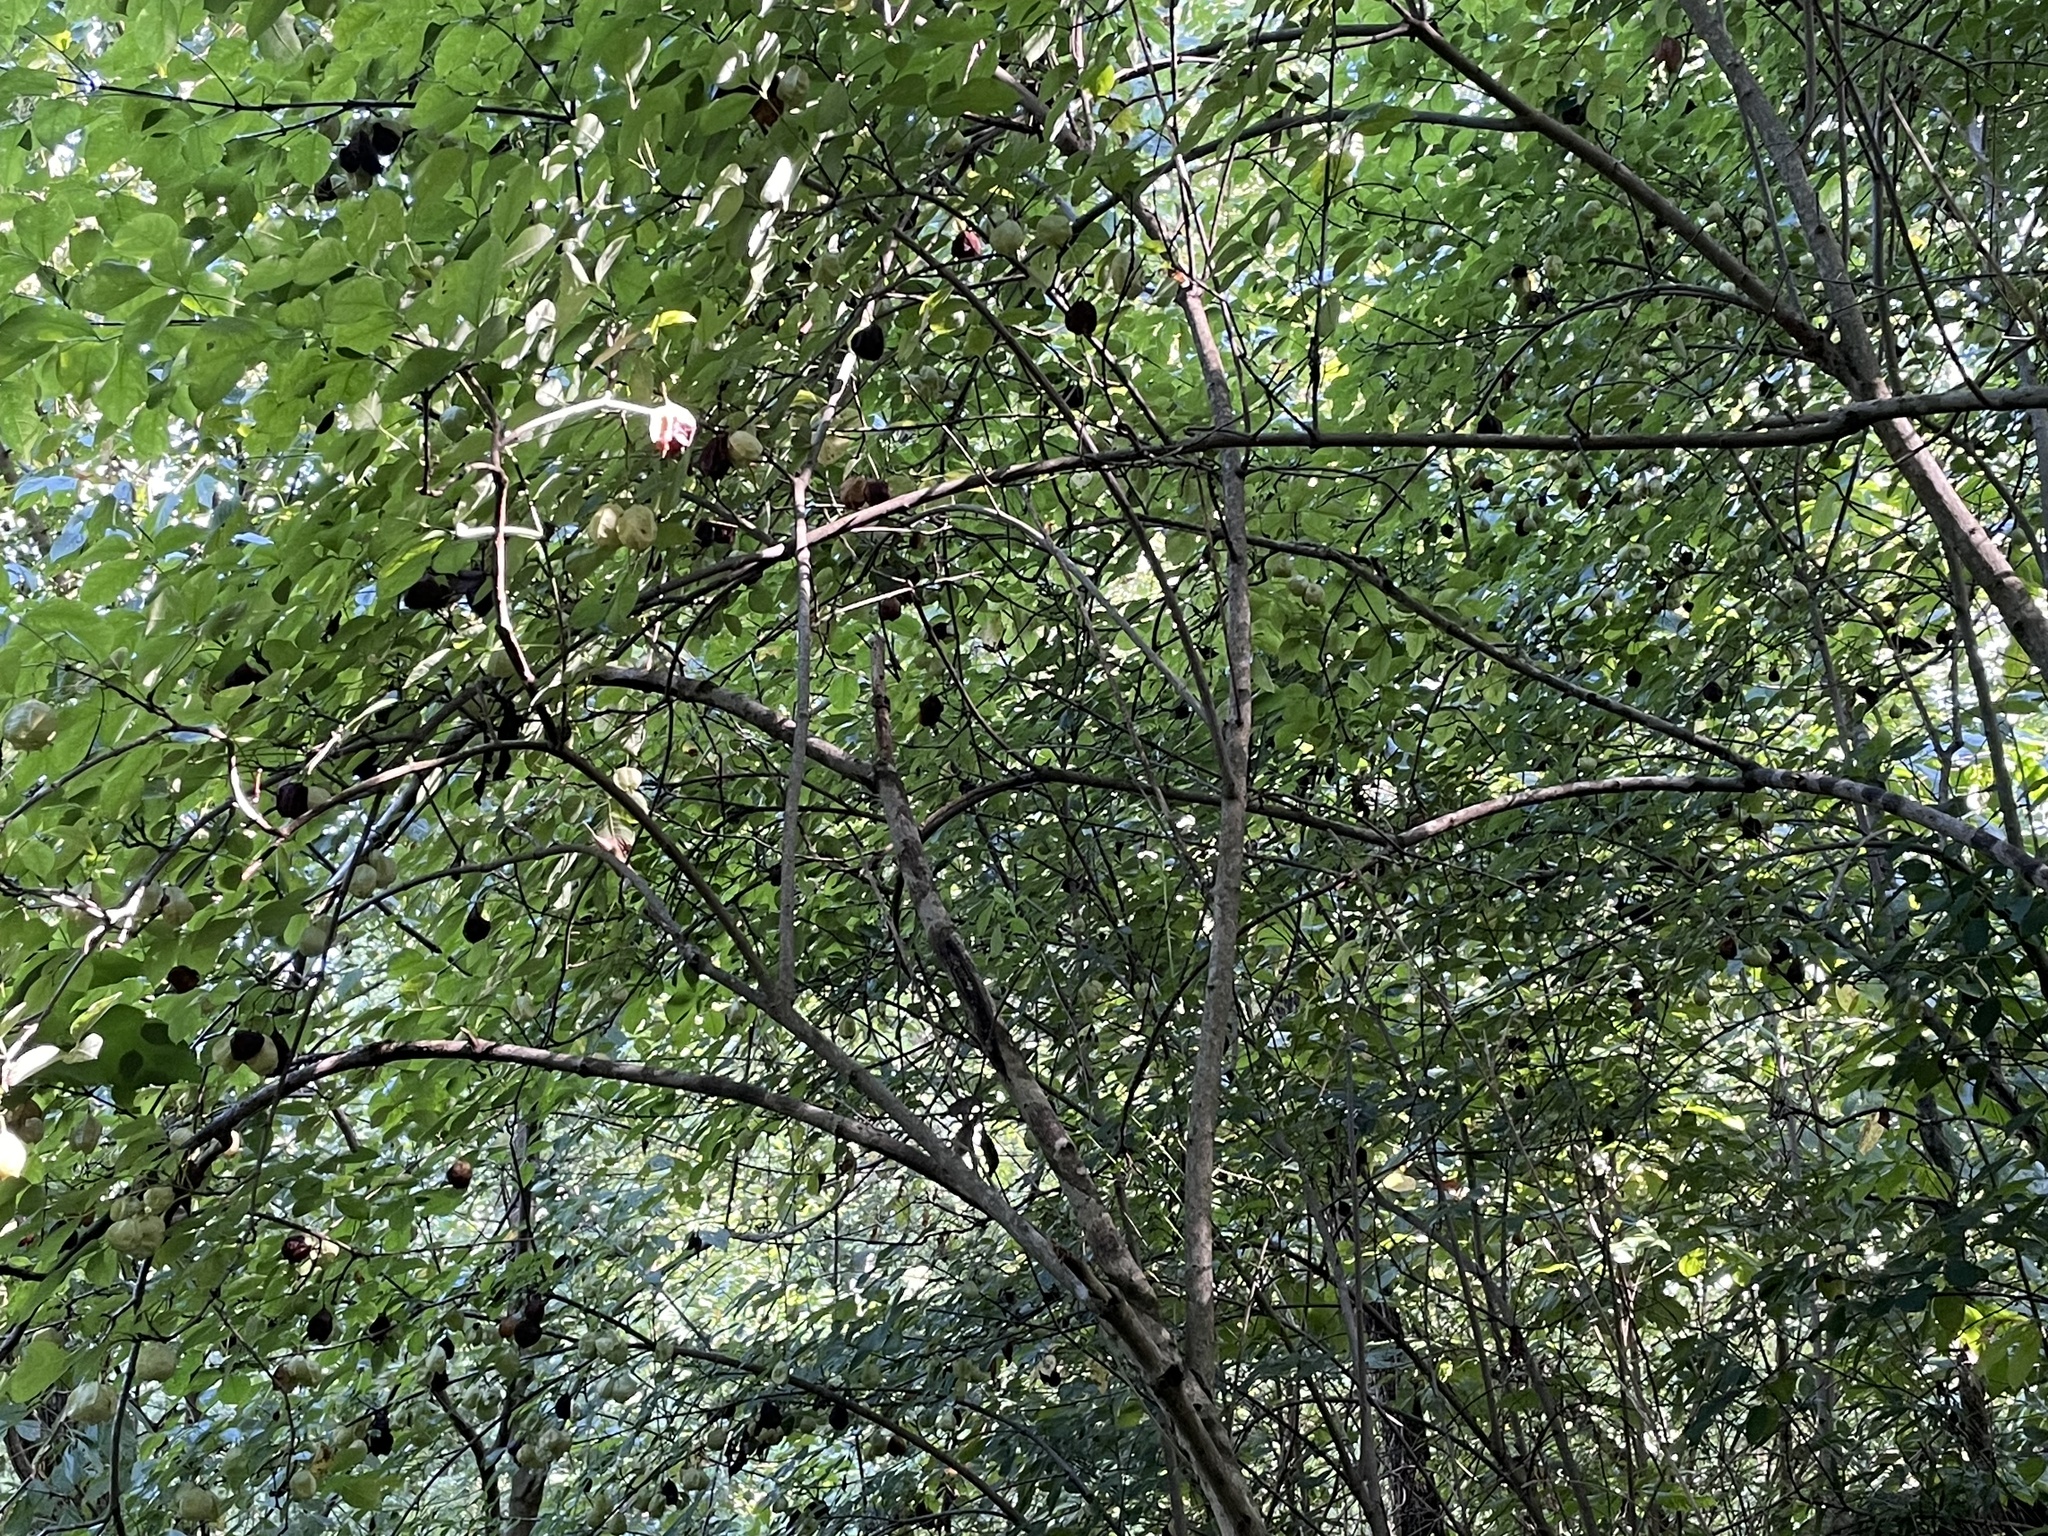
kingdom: Plantae
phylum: Tracheophyta
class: Magnoliopsida
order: Crossosomatales
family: Staphyleaceae
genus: Staphylea
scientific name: Staphylea trifolia
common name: American bladdernut
